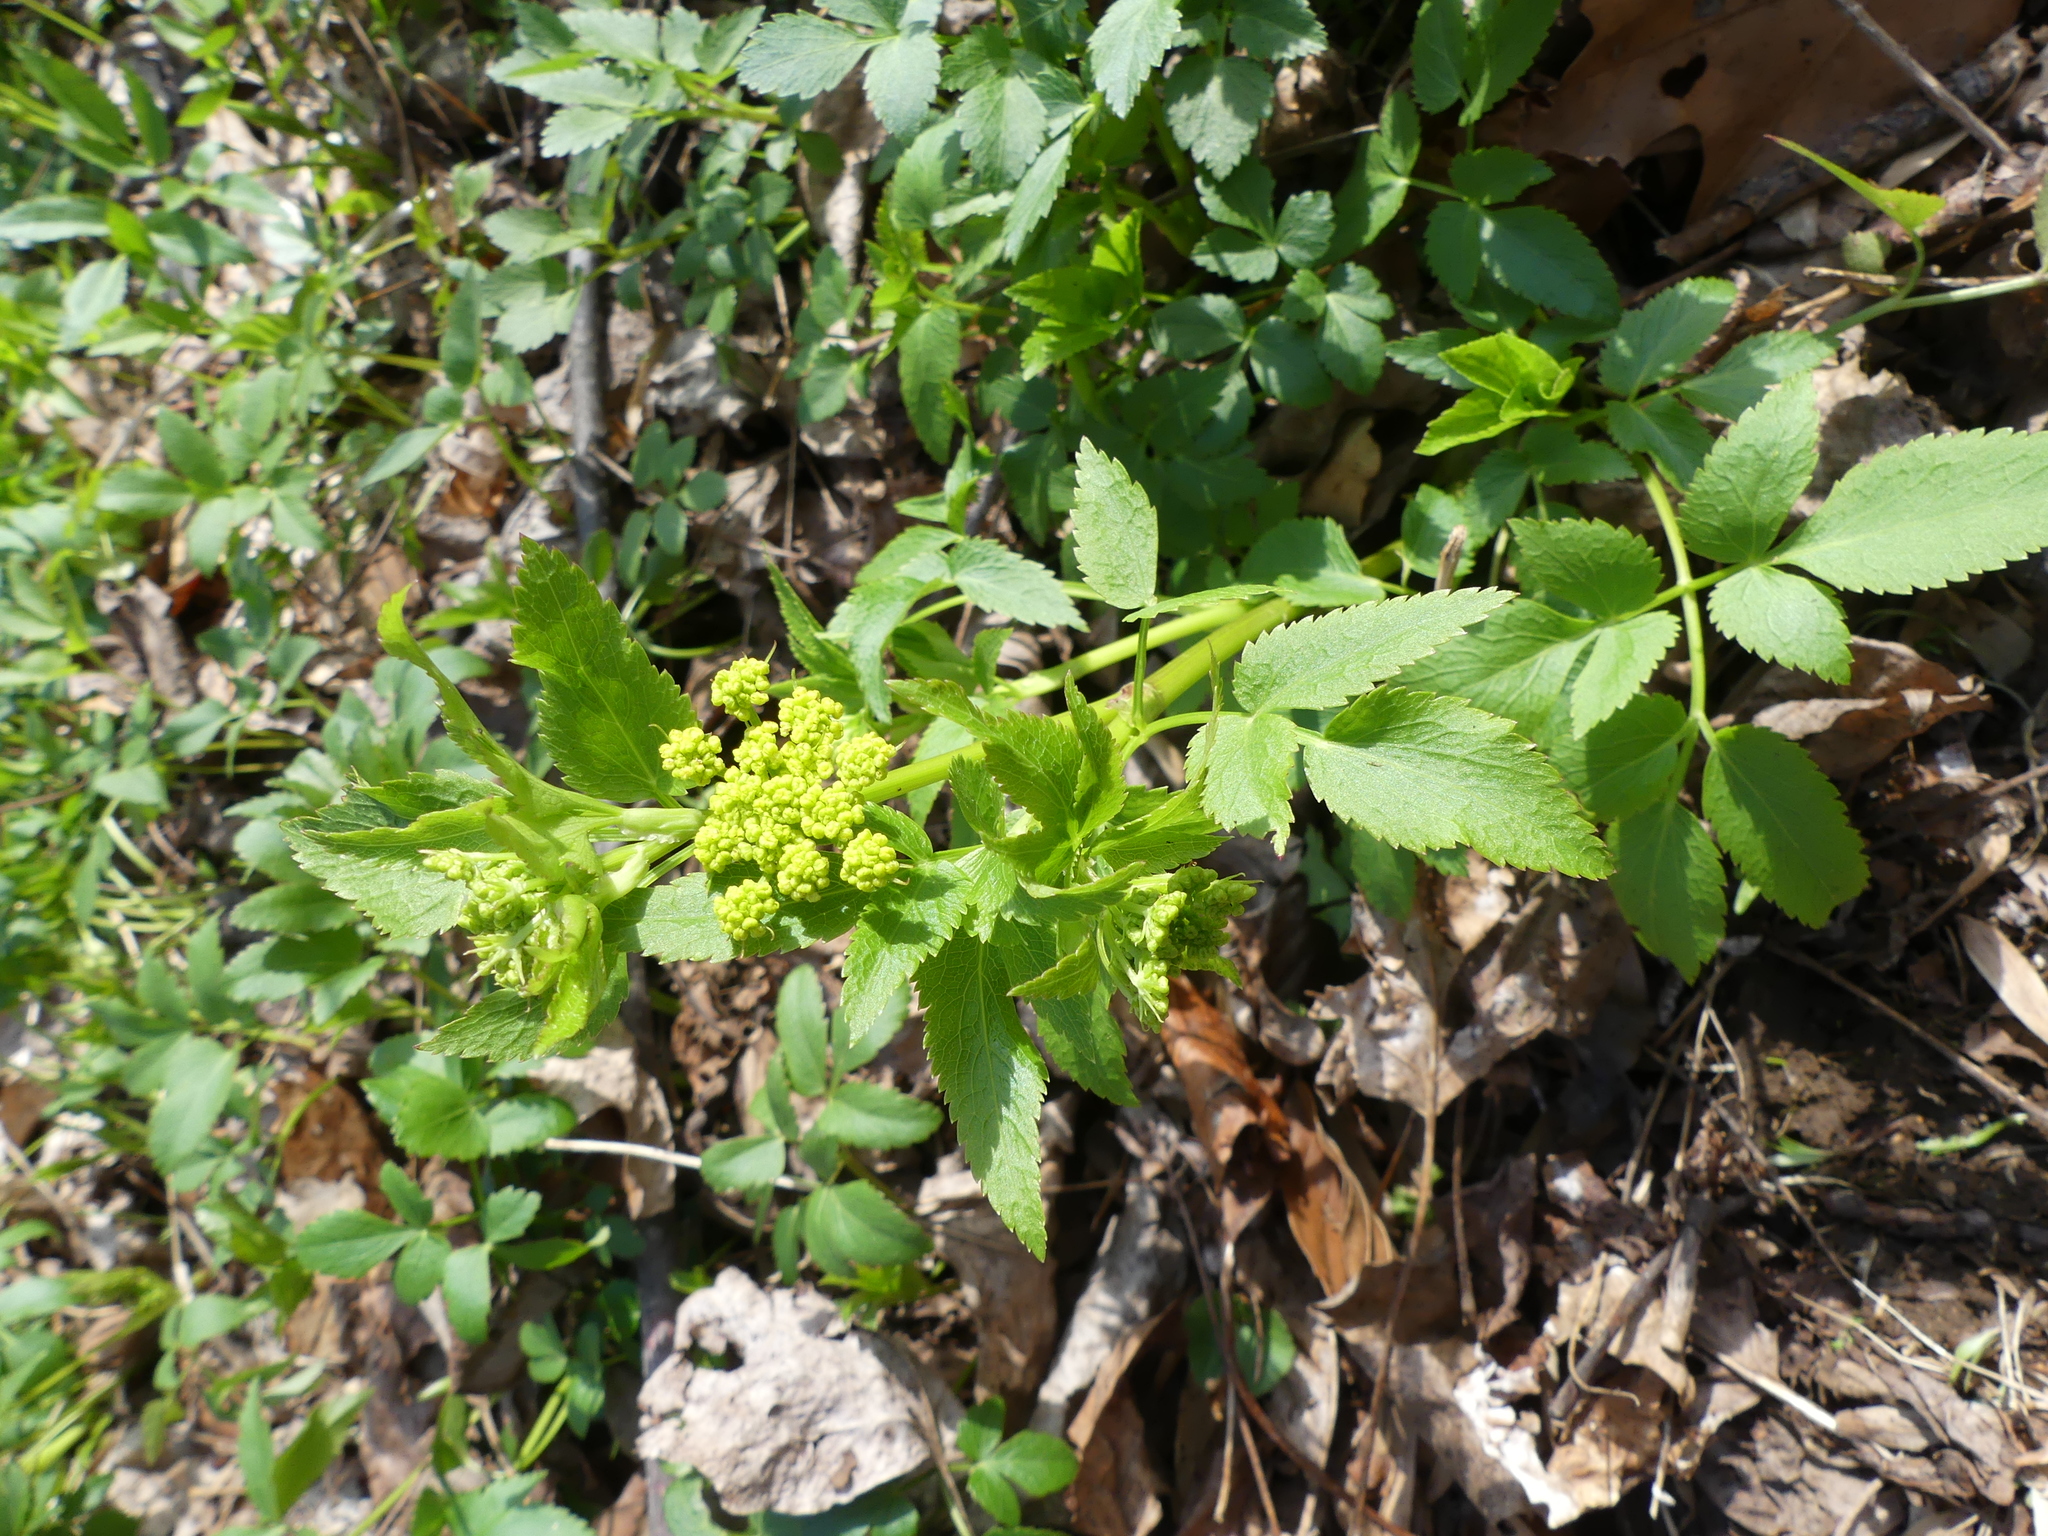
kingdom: Plantae
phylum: Tracheophyta
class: Magnoliopsida
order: Apiales
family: Apiaceae
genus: Zizia
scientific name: Zizia aurea
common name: Golden alexanders
